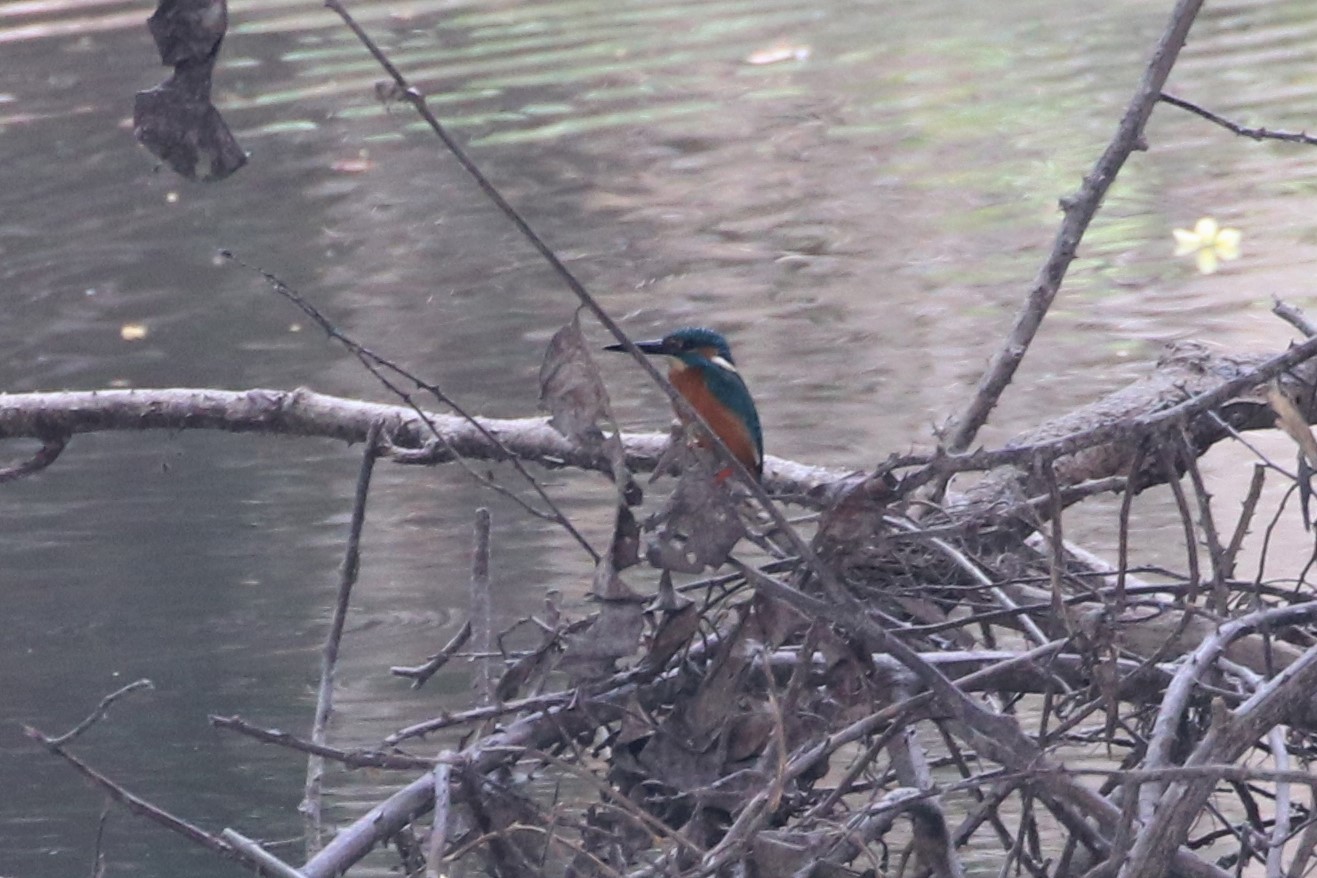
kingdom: Animalia
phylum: Chordata
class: Aves
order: Coraciiformes
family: Alcedinidae
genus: Alcedo
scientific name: Alcedo atthis
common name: Common kingfisher
